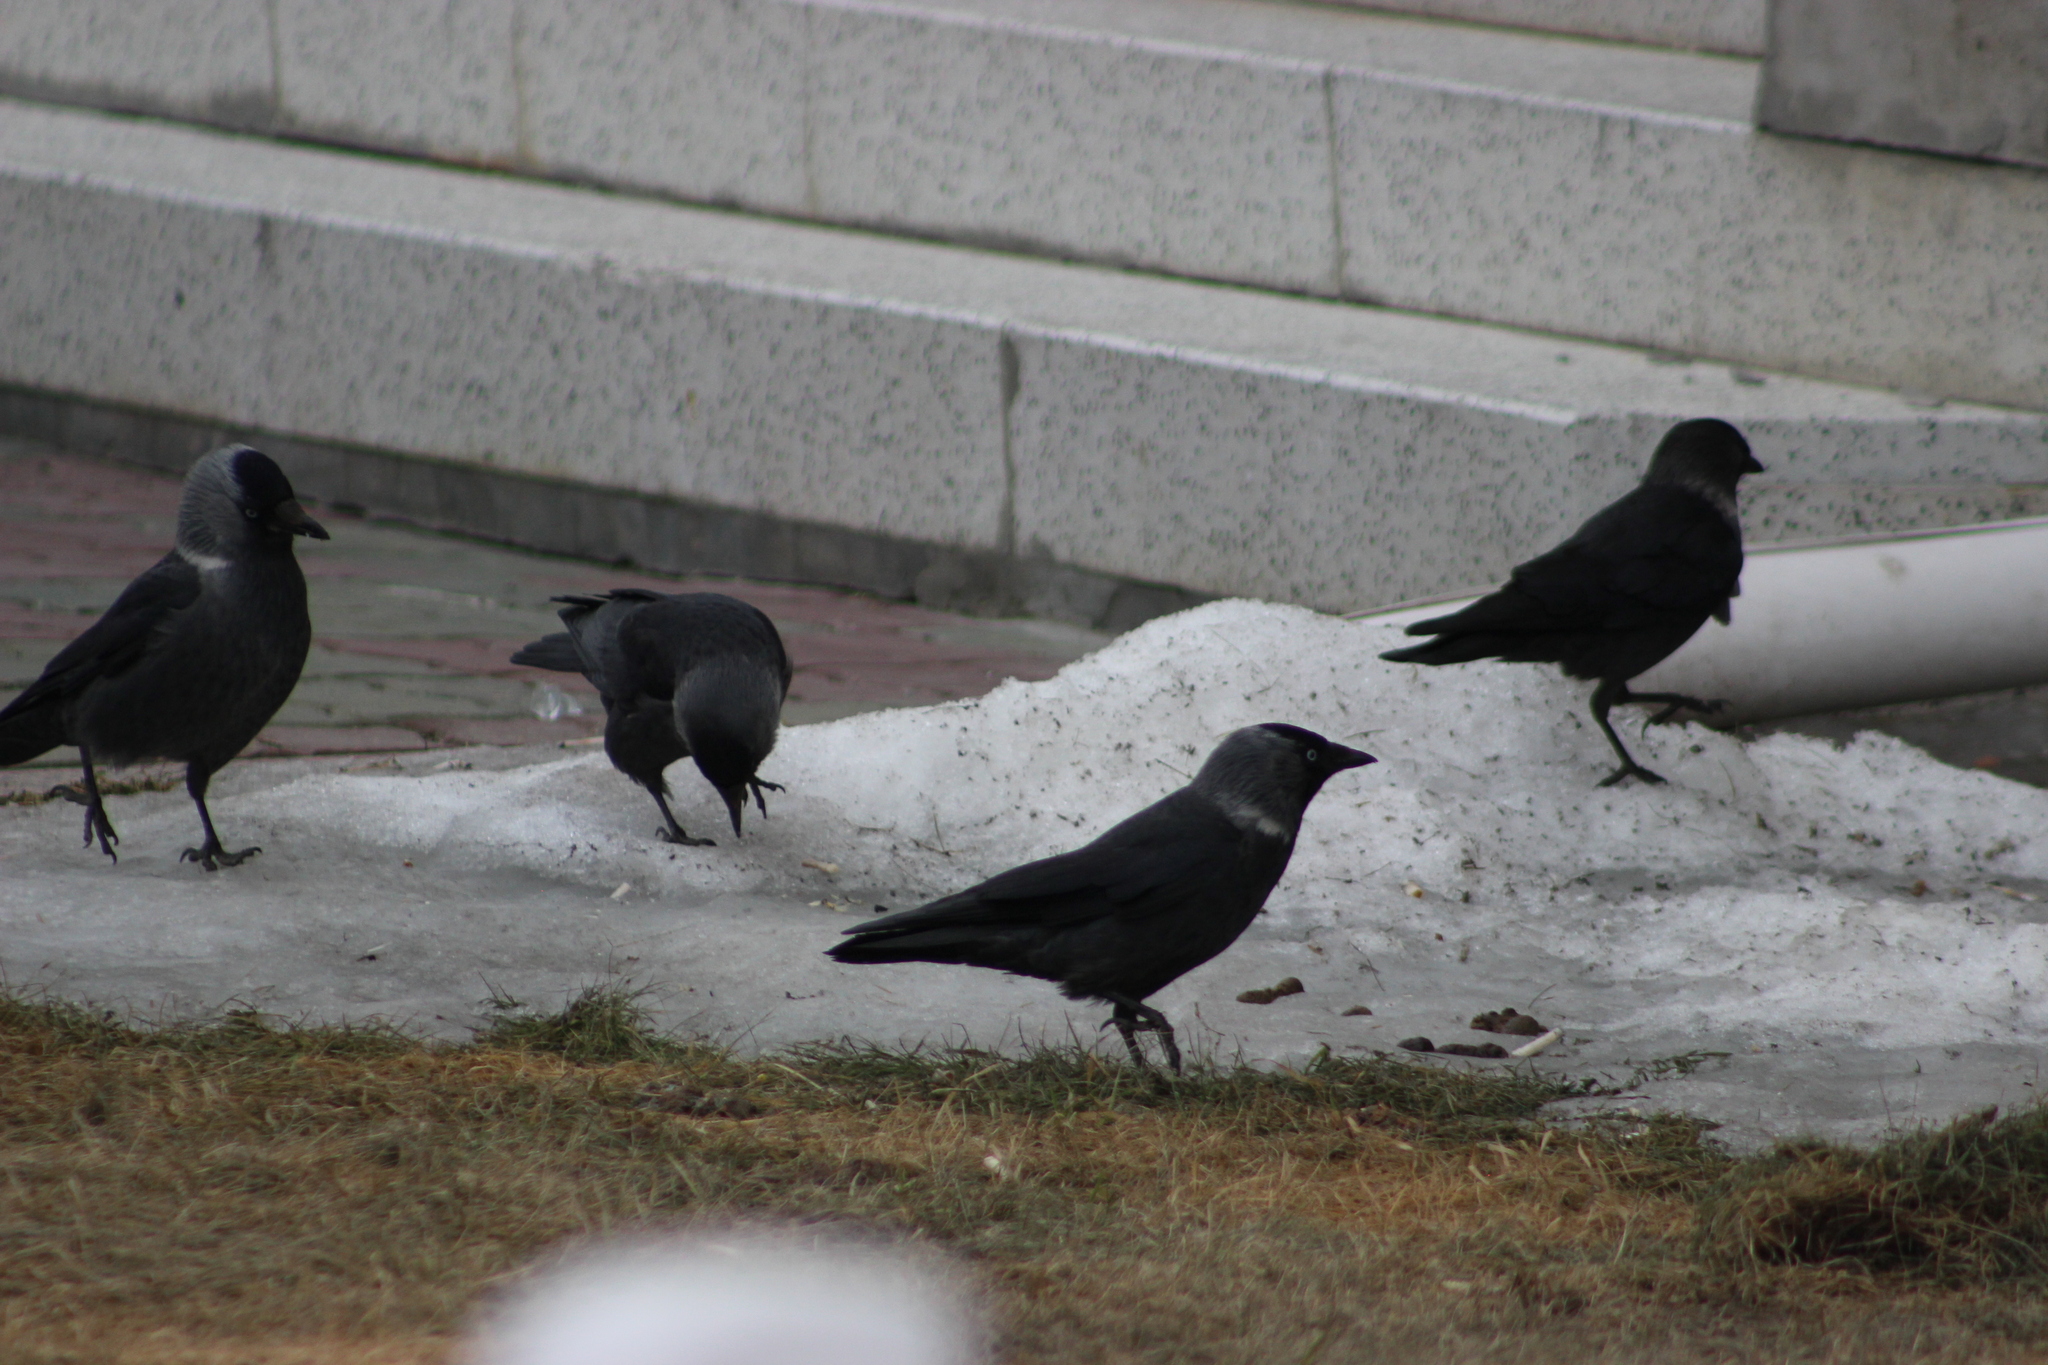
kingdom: Animalia
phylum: Chordata
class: Aves
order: Passeriformes
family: Corvidae
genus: Coloeus
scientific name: Coloeus monedula
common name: Western jackdaw
